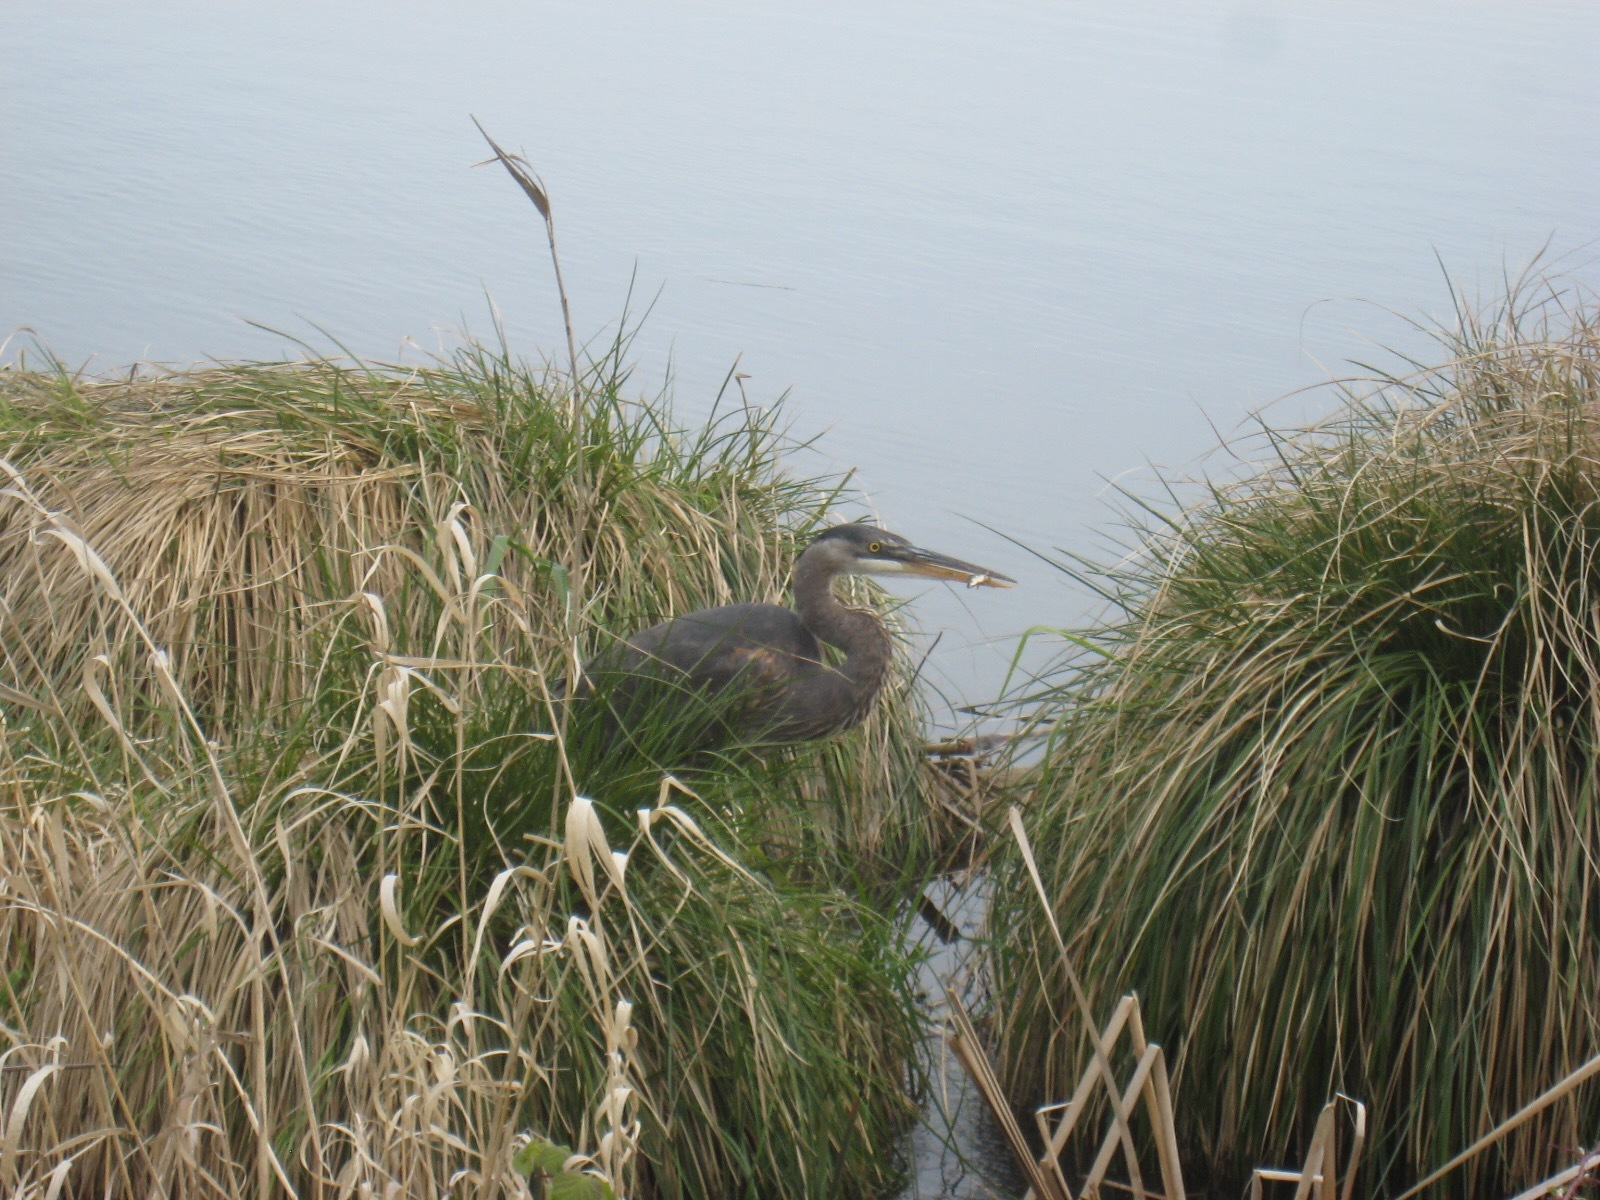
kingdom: Animalia
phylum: Chordata
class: Aves
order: Pelecaniformes
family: Ardeidae
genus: Ardea
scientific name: Ardea herodias
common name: Great blue heron
